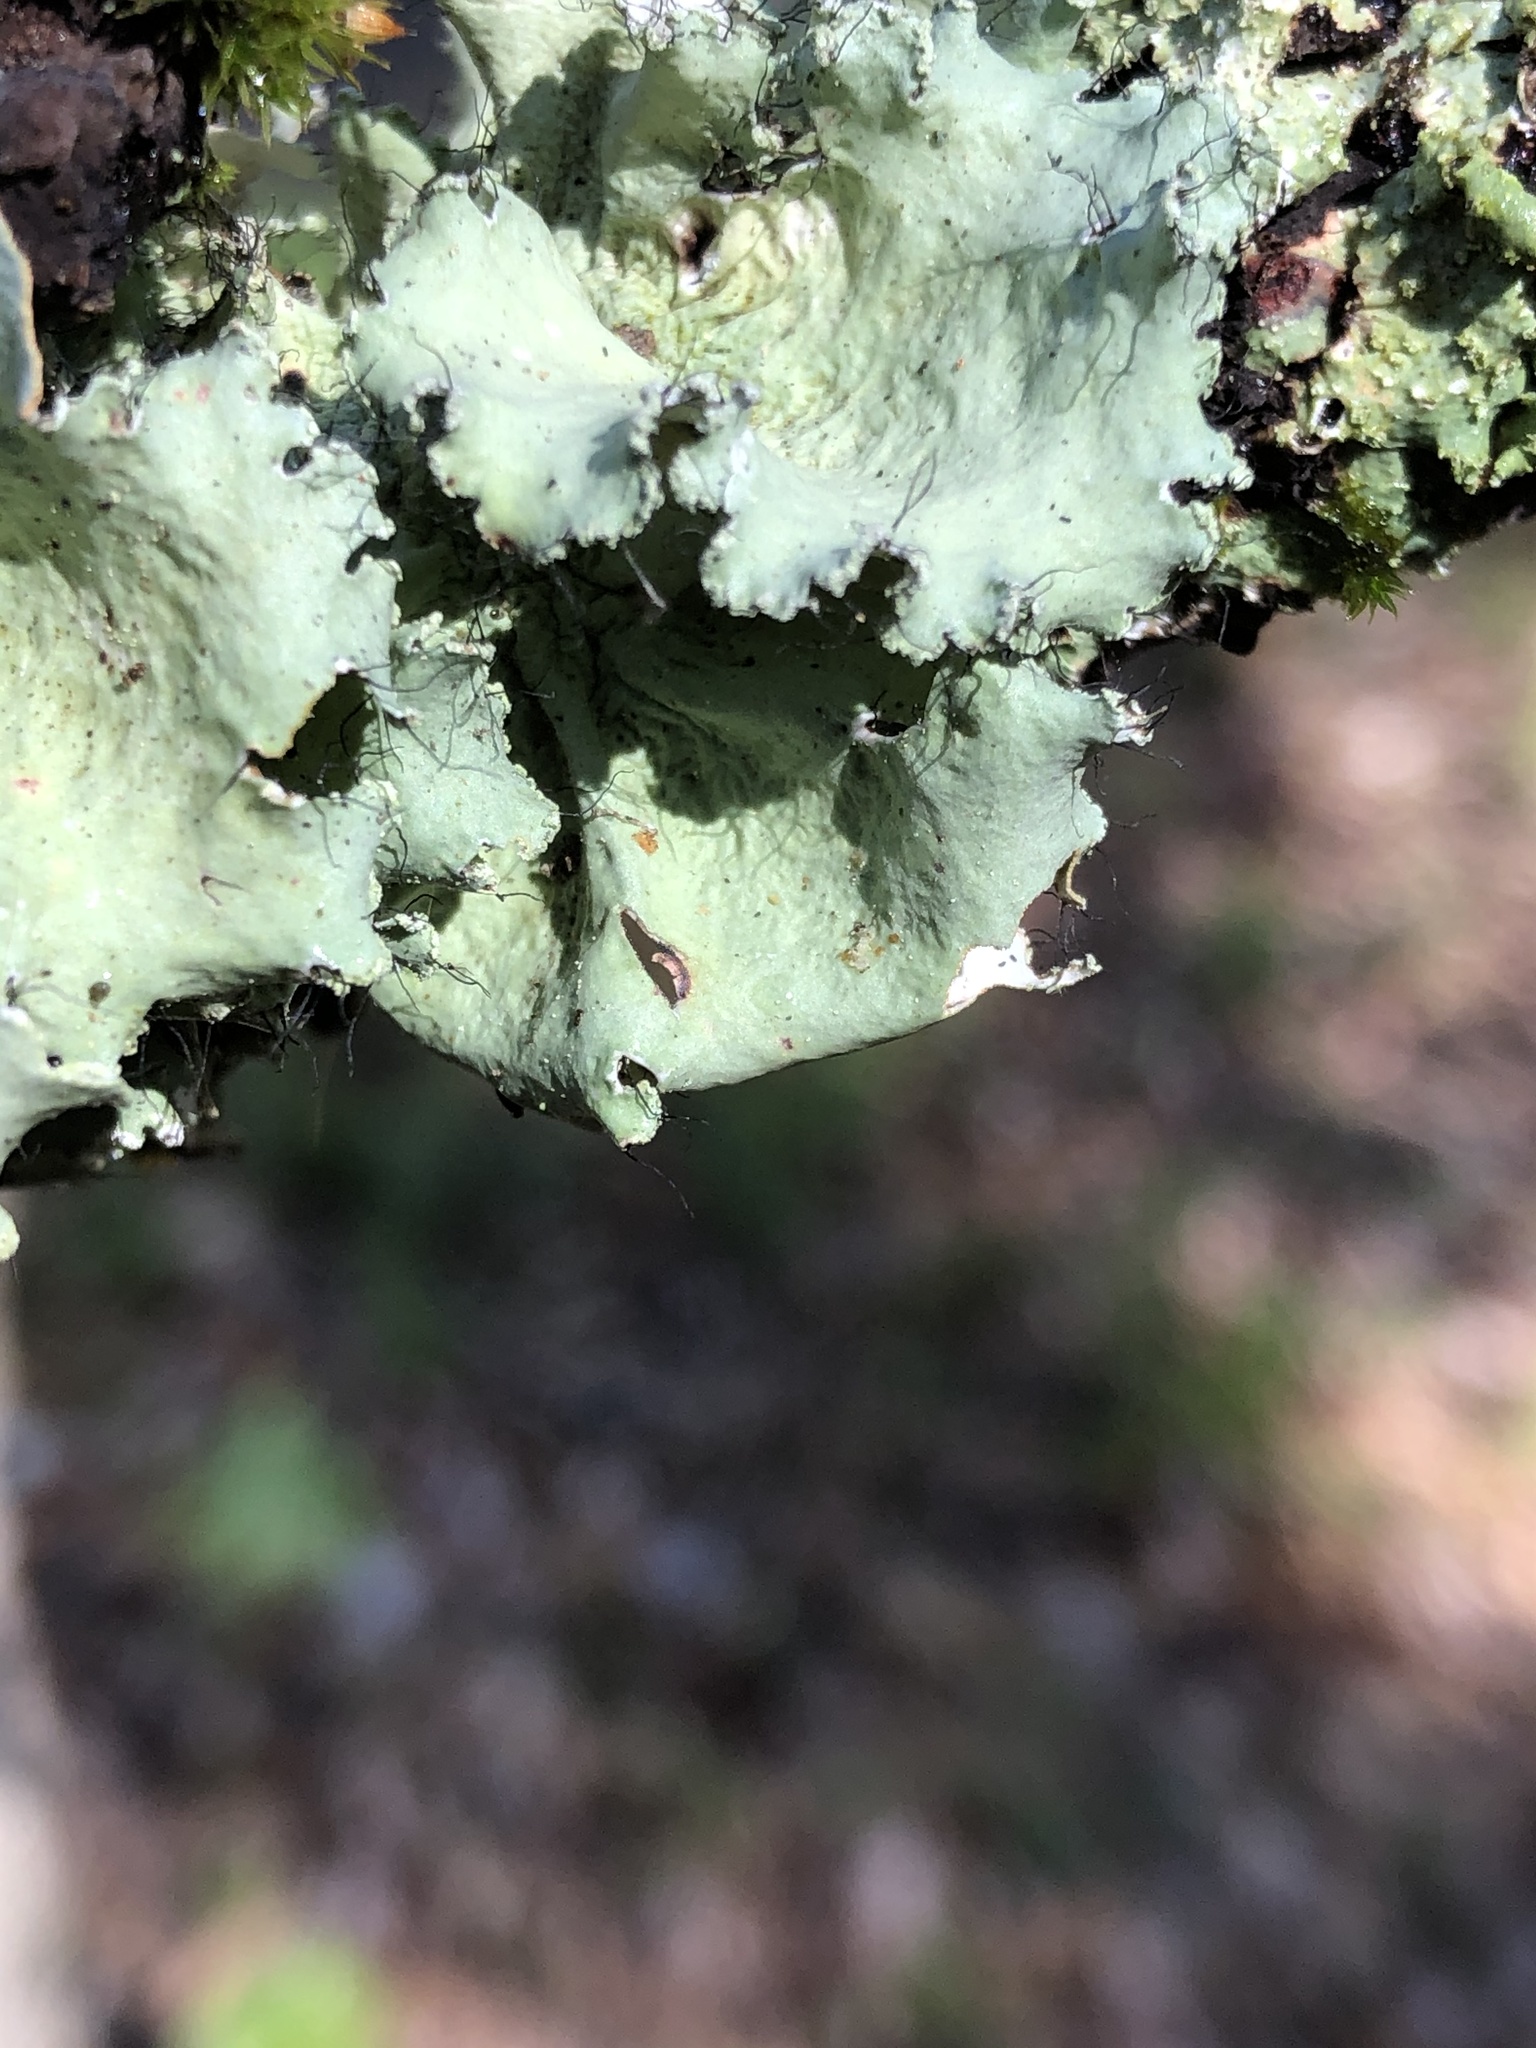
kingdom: Fungi
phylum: Ascomycota
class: Lecanoromycetes
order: Lecanorales
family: Parmeliaceae
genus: Parmotrema
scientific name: Parmotrema hypotropum
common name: Powdered ruffle lichen
